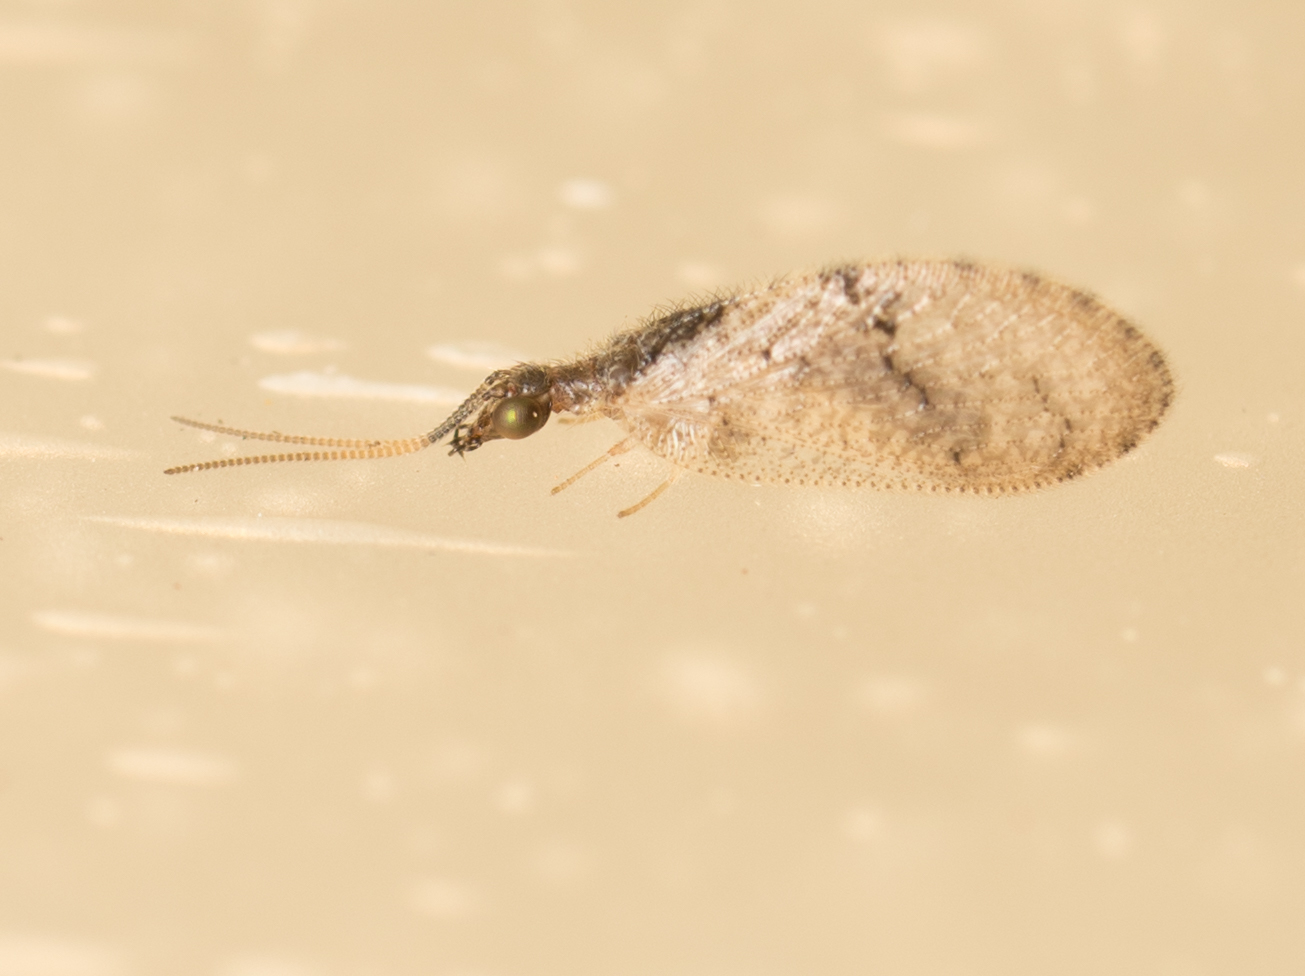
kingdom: Animalia
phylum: Arthropoda
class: Insecta
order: Neuroptera
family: Hemerobiidae
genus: Sympherobius
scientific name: Sympherobius barberi
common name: Brown lacewing
